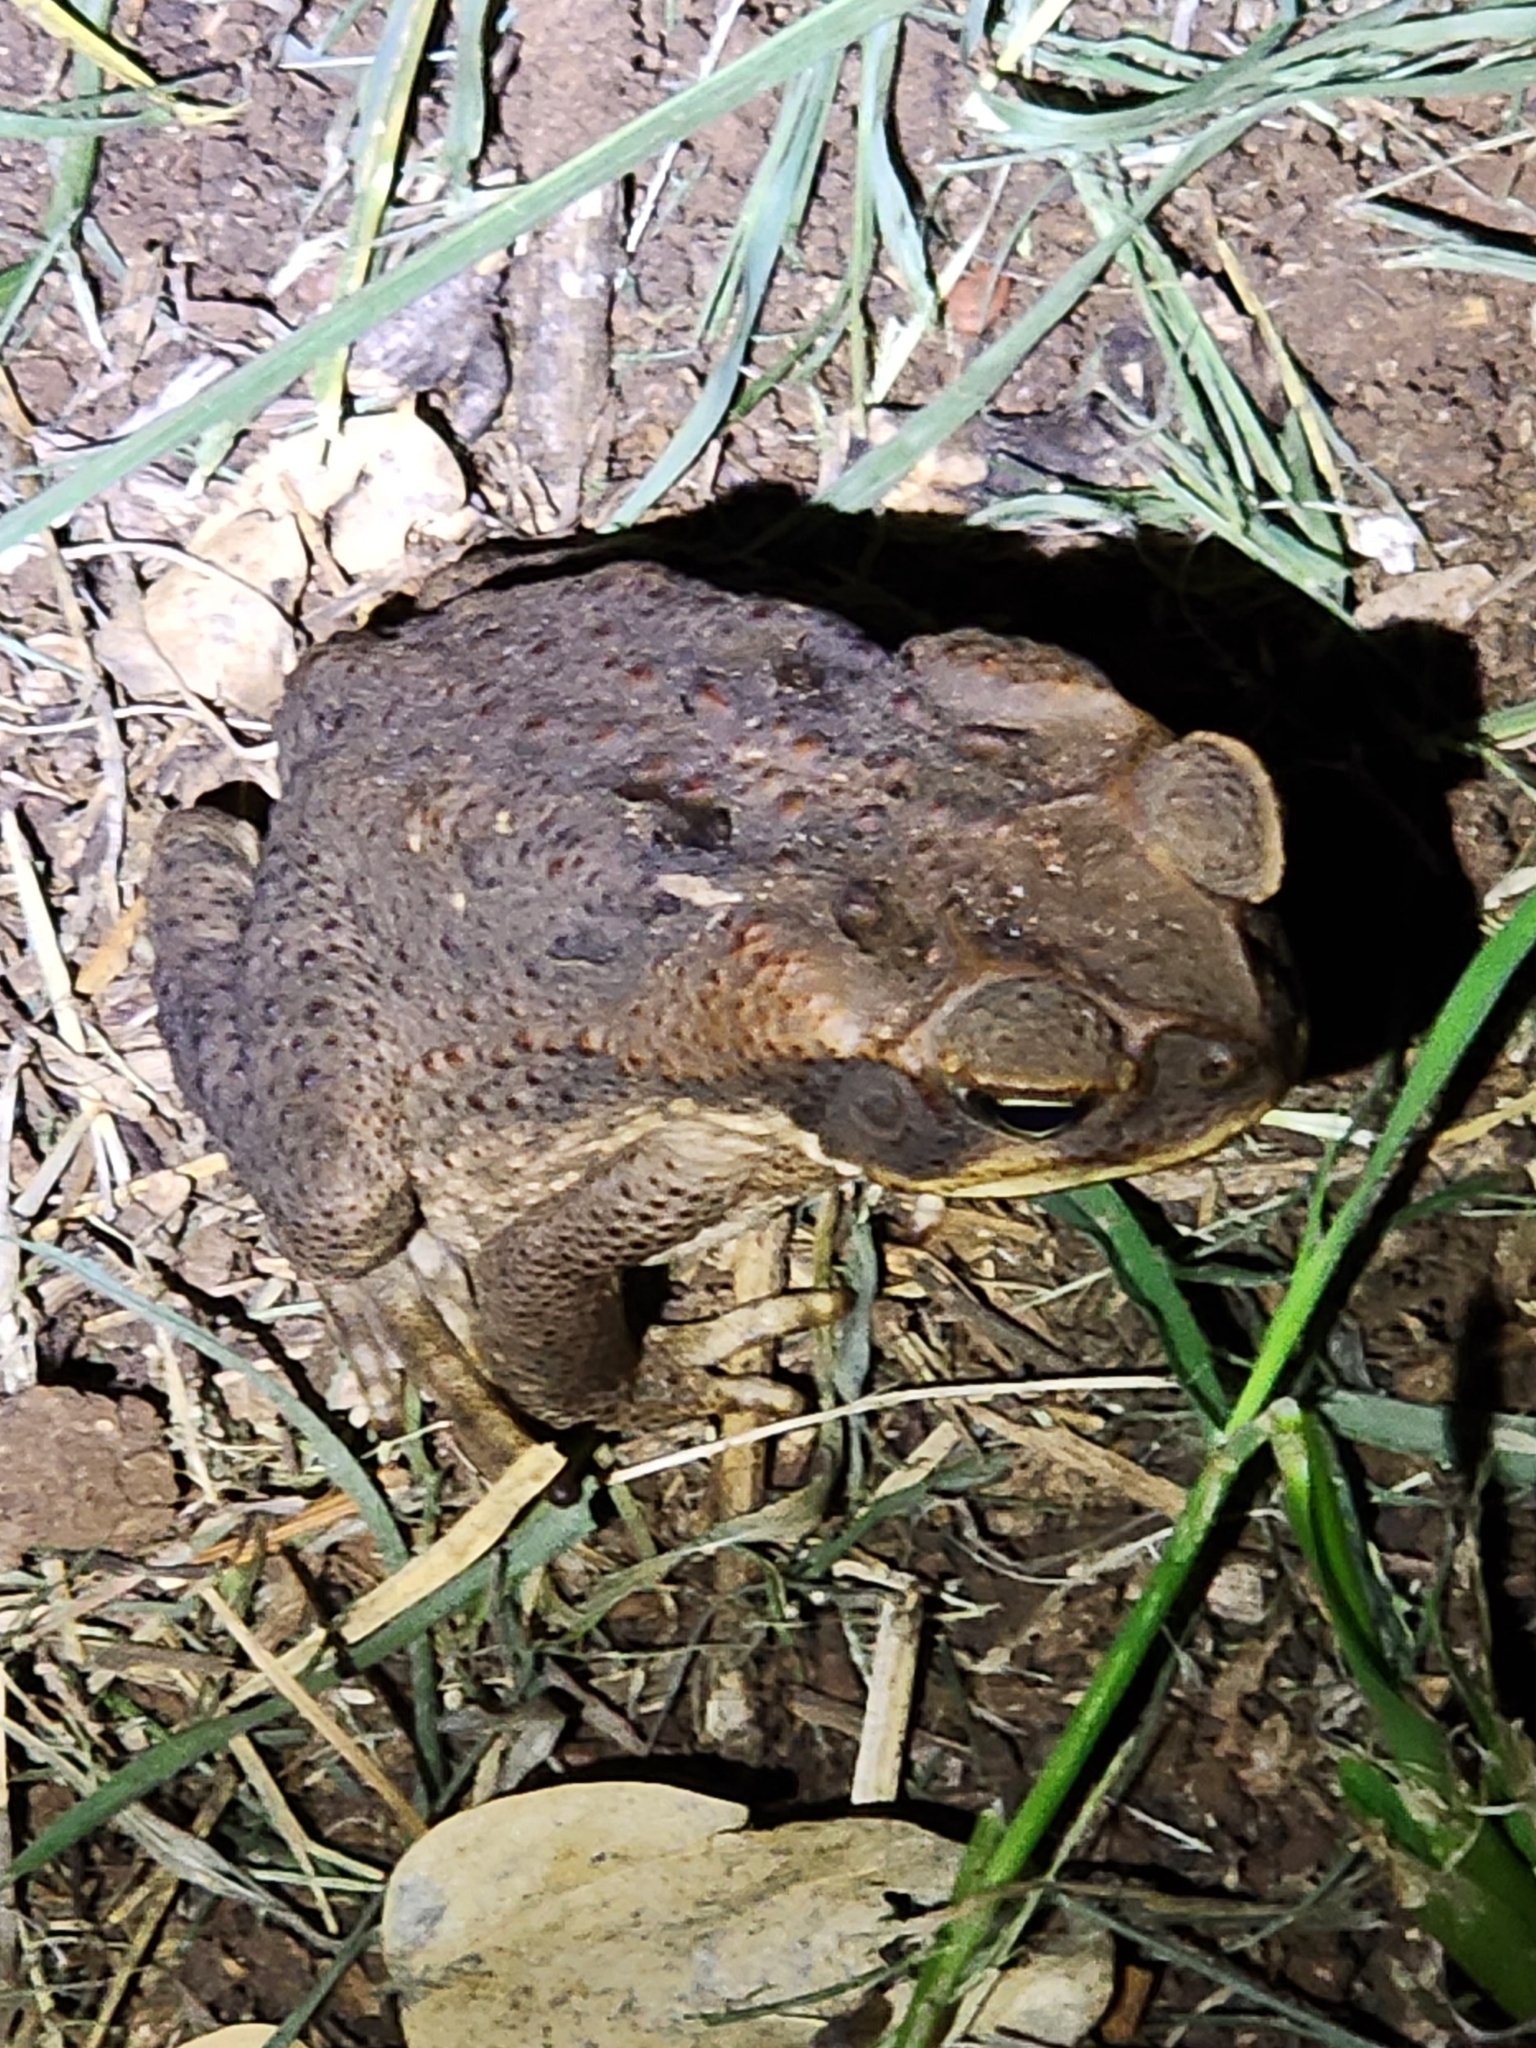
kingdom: Animalia
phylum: Chordata
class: Amphibia
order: Anura
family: Bufonidae
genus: Rhinella
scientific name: Rhinella marina
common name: Cane toad
